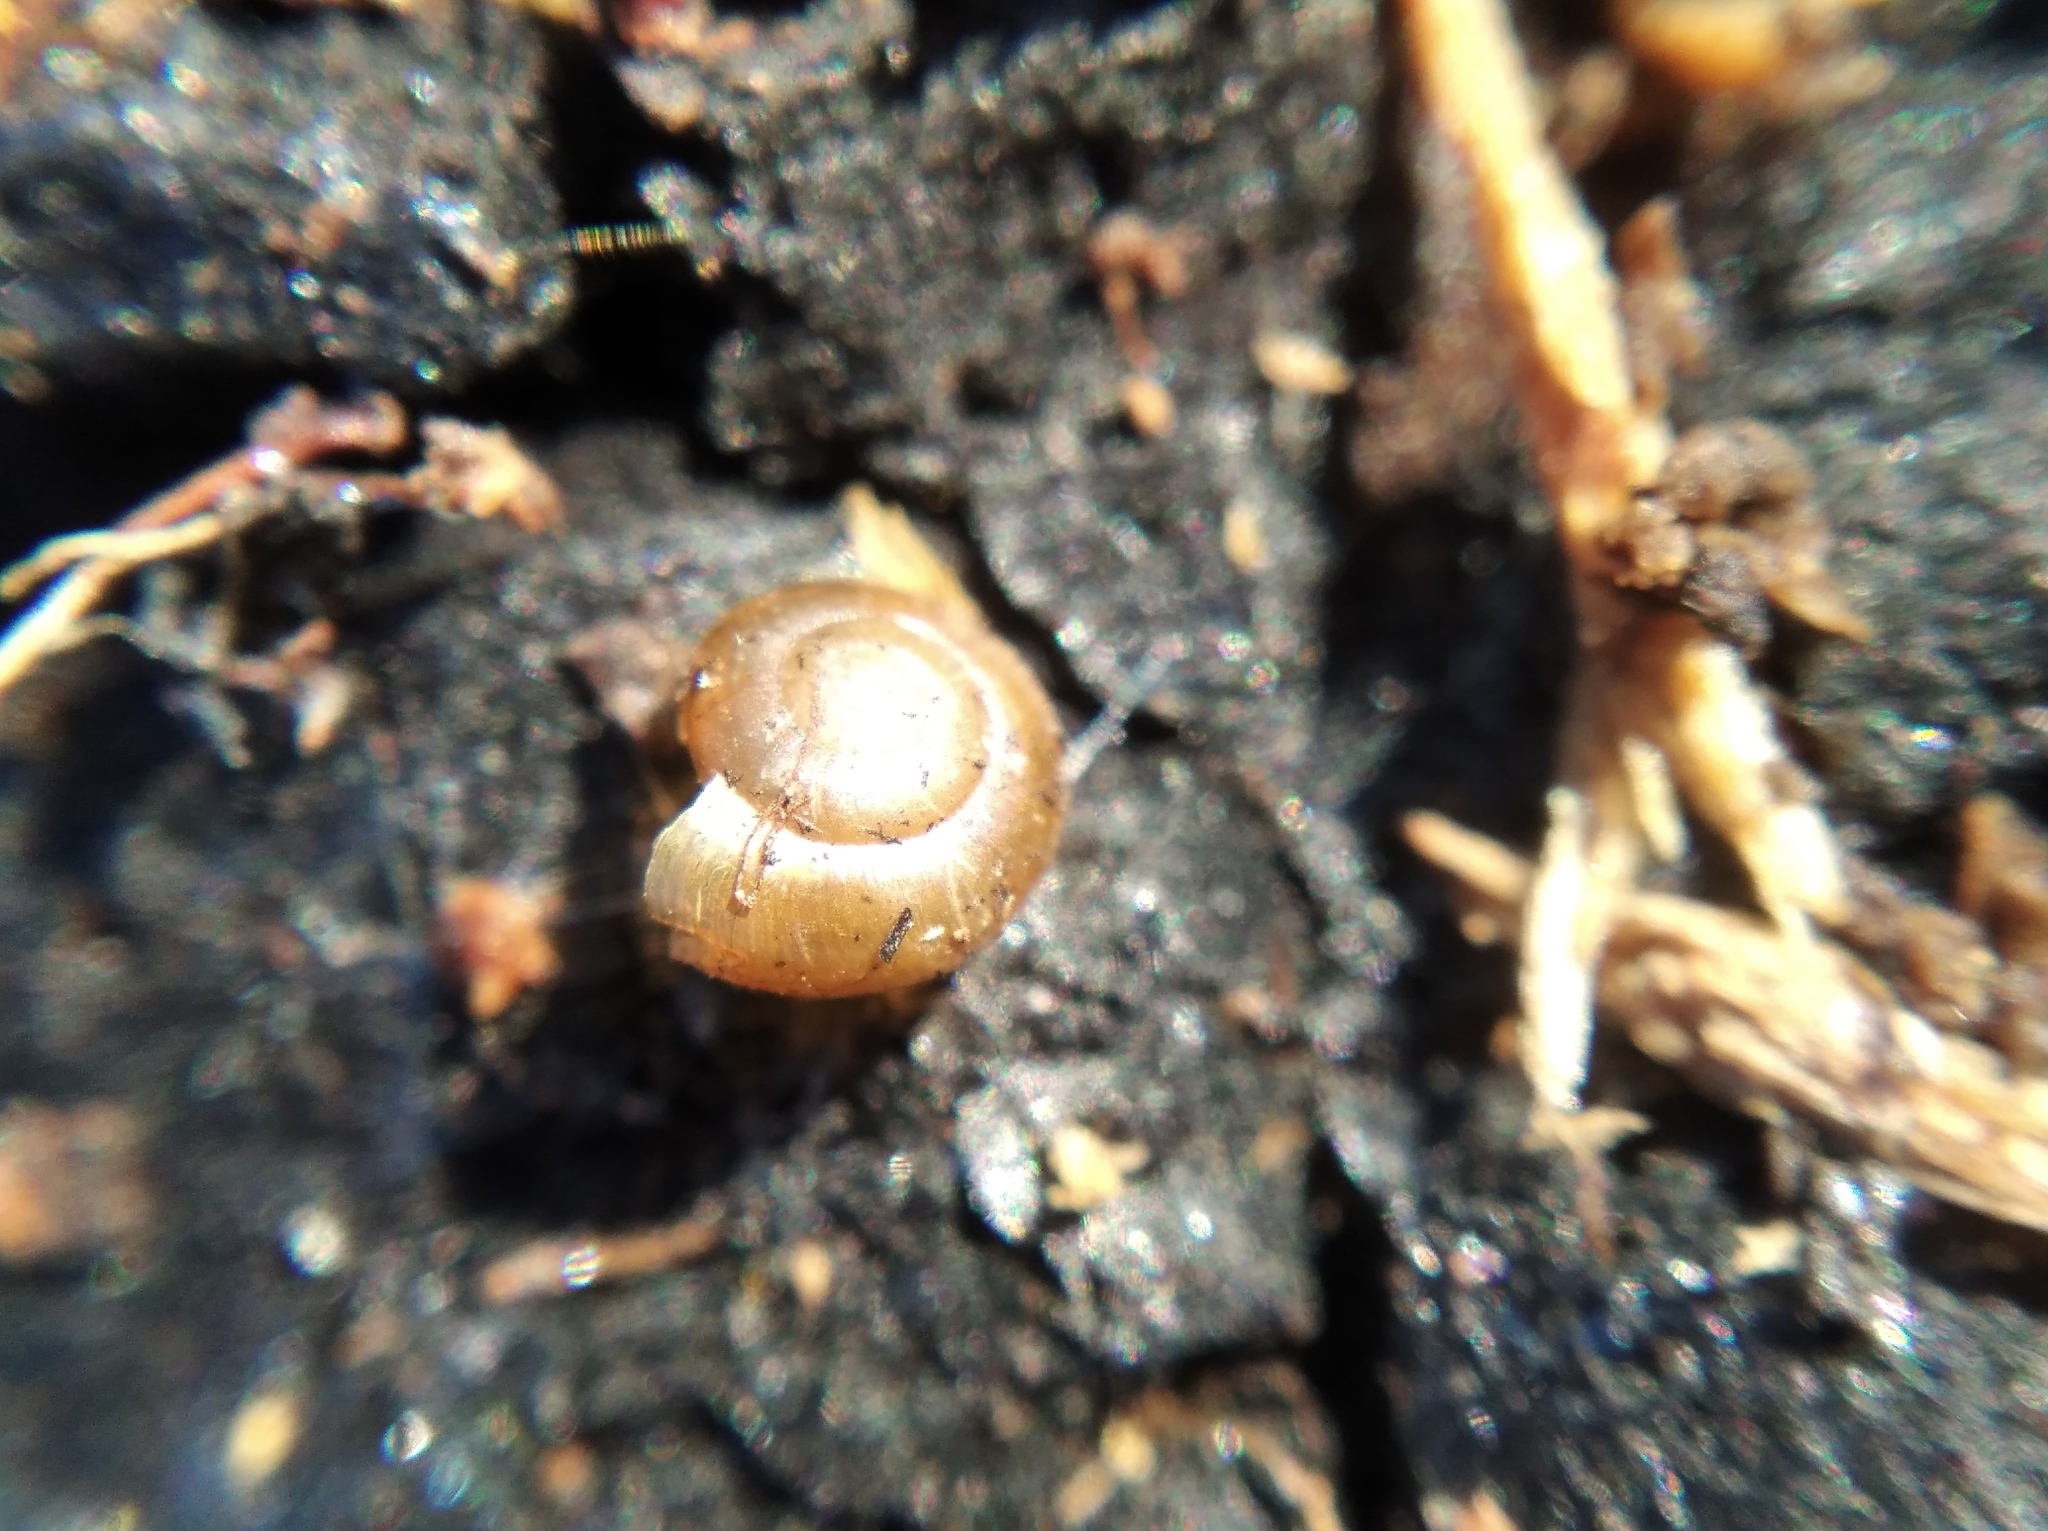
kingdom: Animalia
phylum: Mollusca
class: Gastropoda
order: Stylommatophora
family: Gastrodontidae
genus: Zonitoides
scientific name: Zonitoides nitidus
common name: Shiny glass snail
